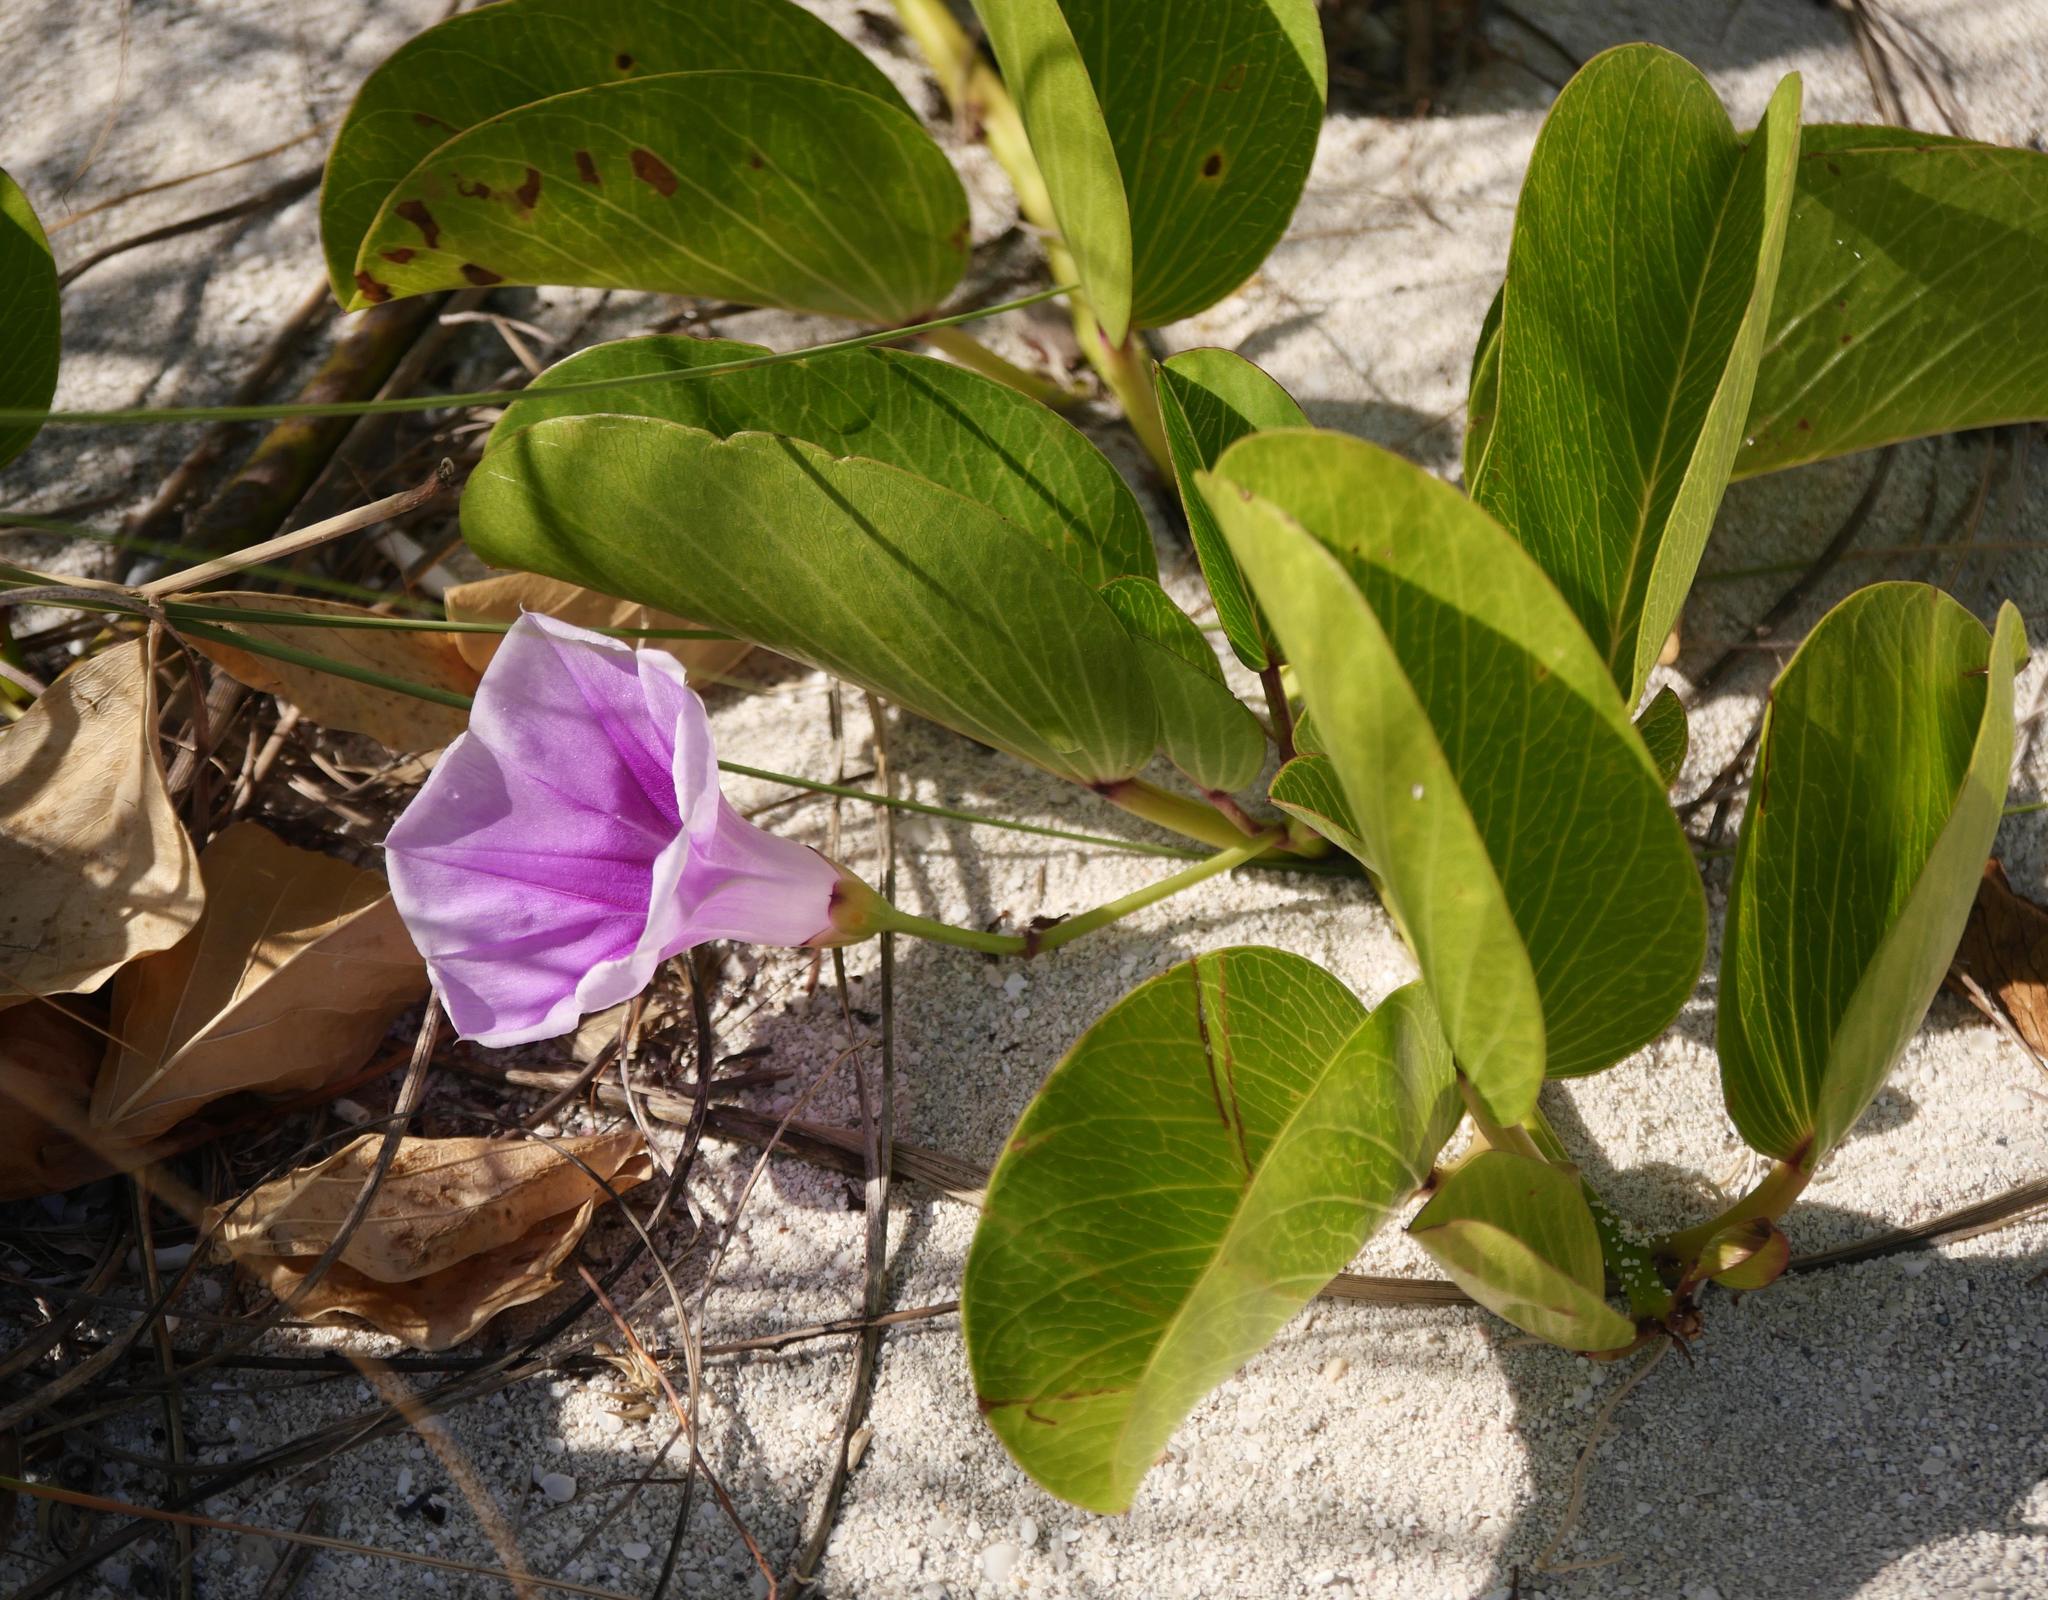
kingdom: Plantae
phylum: Tracheophyta
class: Magnoliopsida
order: Solanales
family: Convolvulaceae
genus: Ipomoea
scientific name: Ipomoea pes-caprae
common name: Beach morning glory
